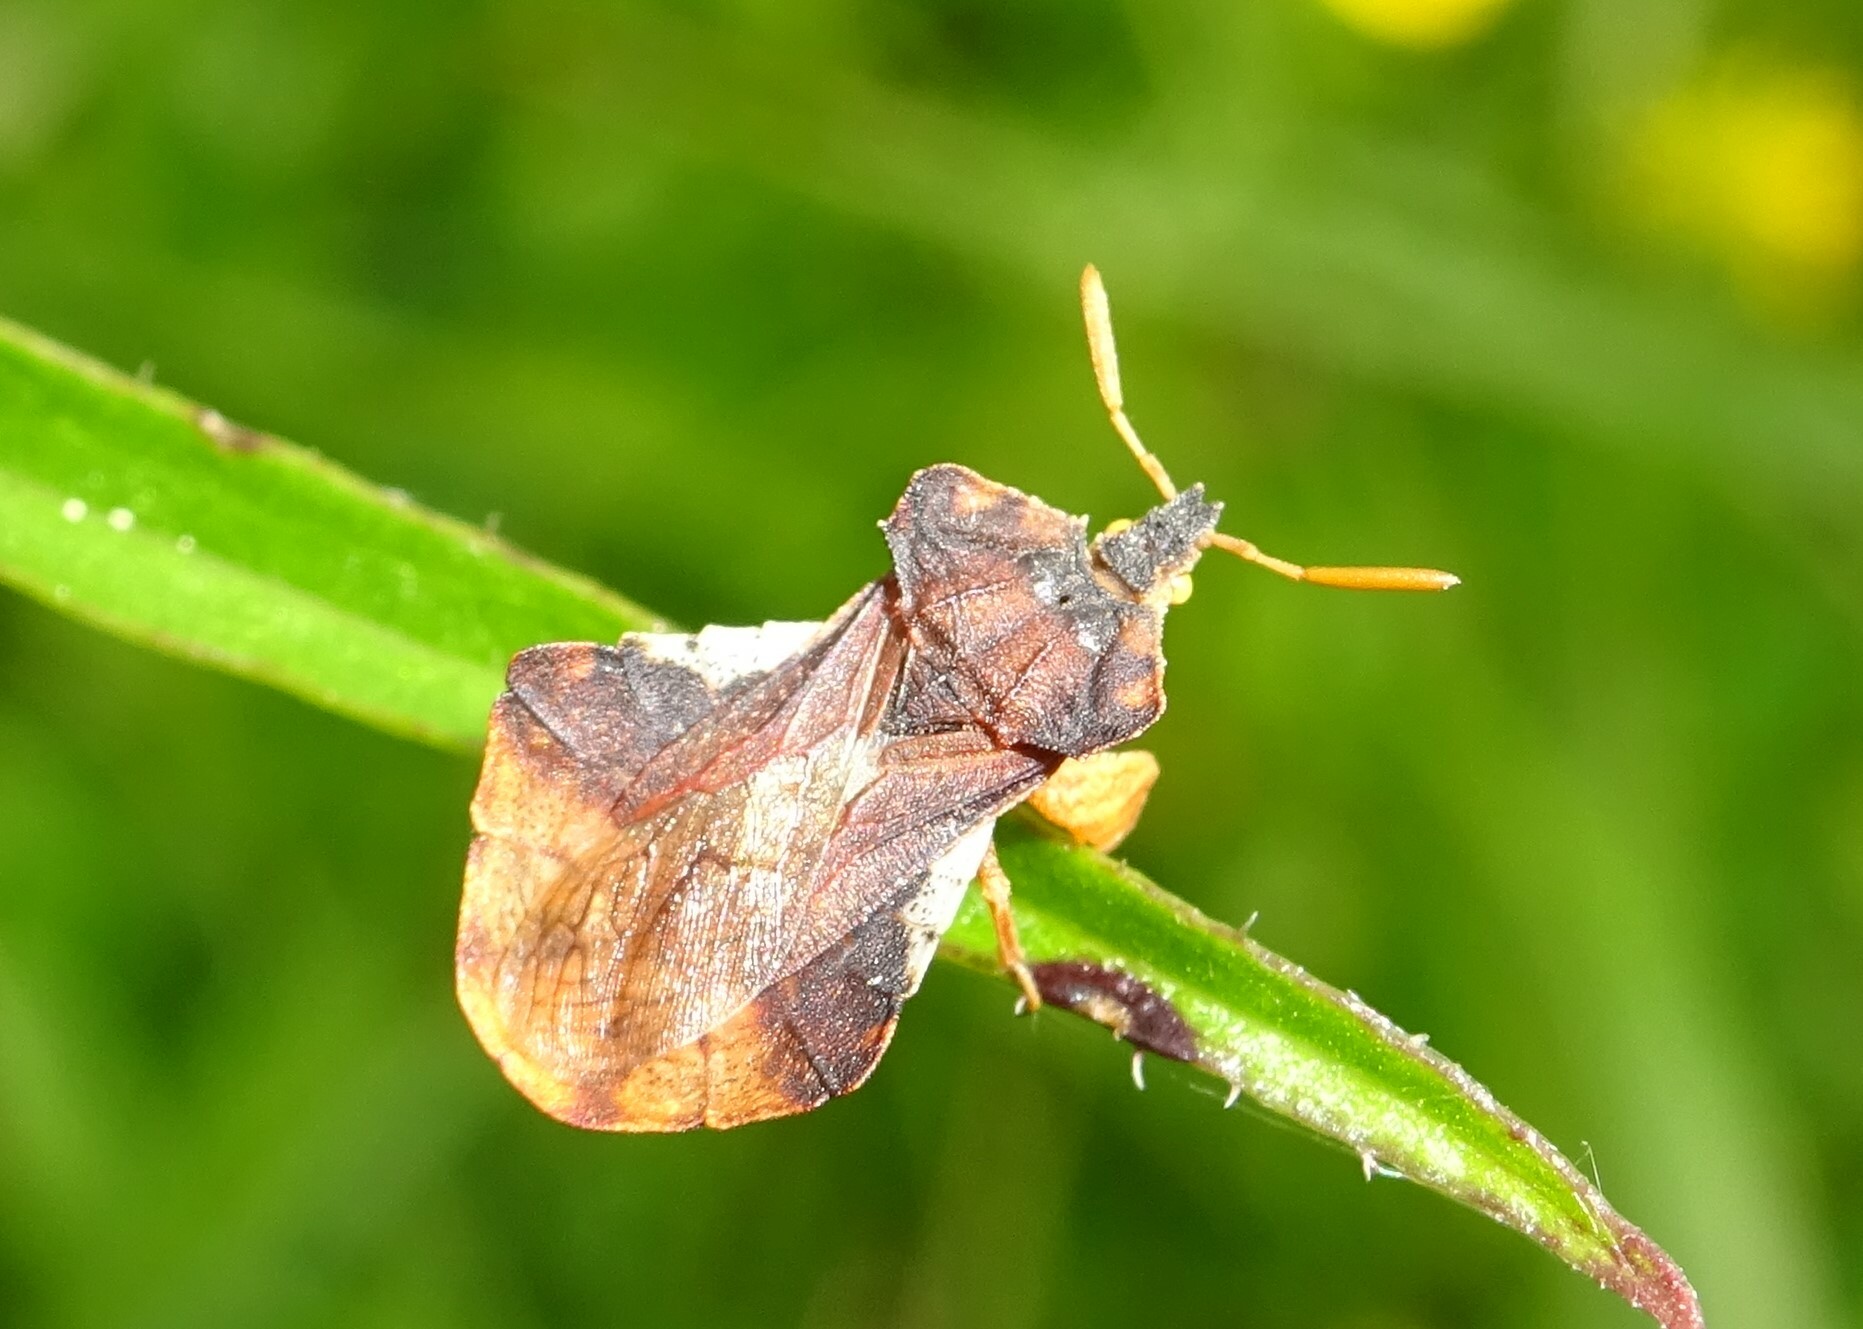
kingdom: Animalia
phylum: Arthropoda
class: Insecta
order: Hemiptera
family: Reduviidae
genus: Phymata
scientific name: Phymata crassipes
